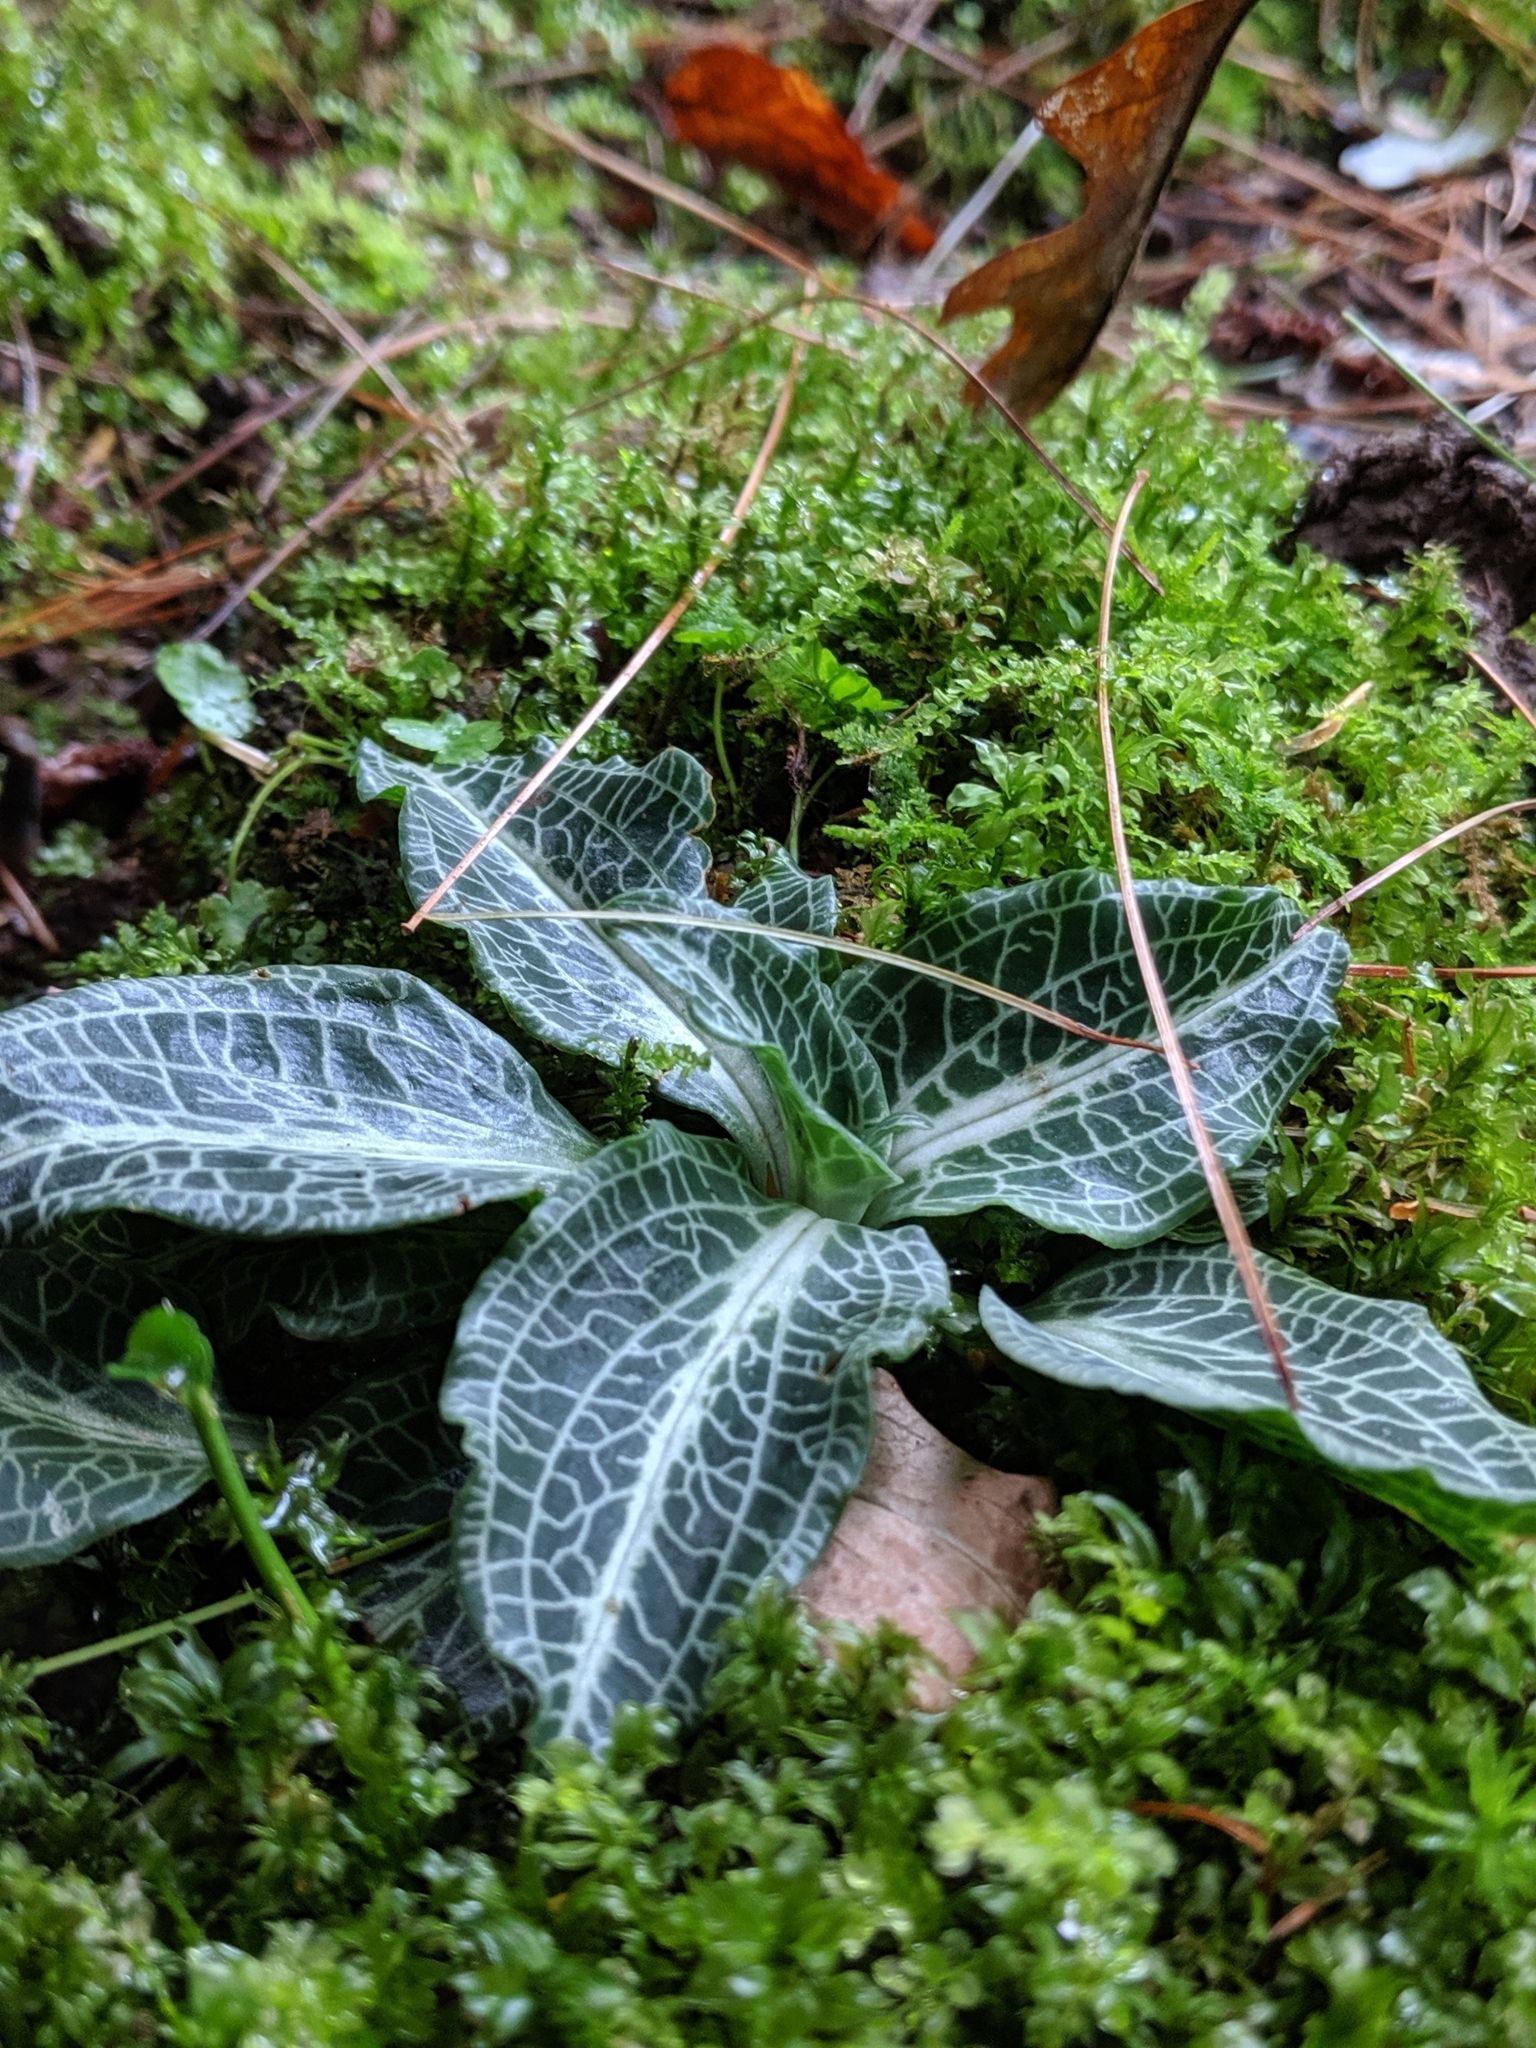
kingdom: Plantae
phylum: Tracheophyta
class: Liliopsida
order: Asparagales
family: Orchidaceae
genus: Goodyera
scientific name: Goodyera pubescens
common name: Downy rattlesnake-plantain
